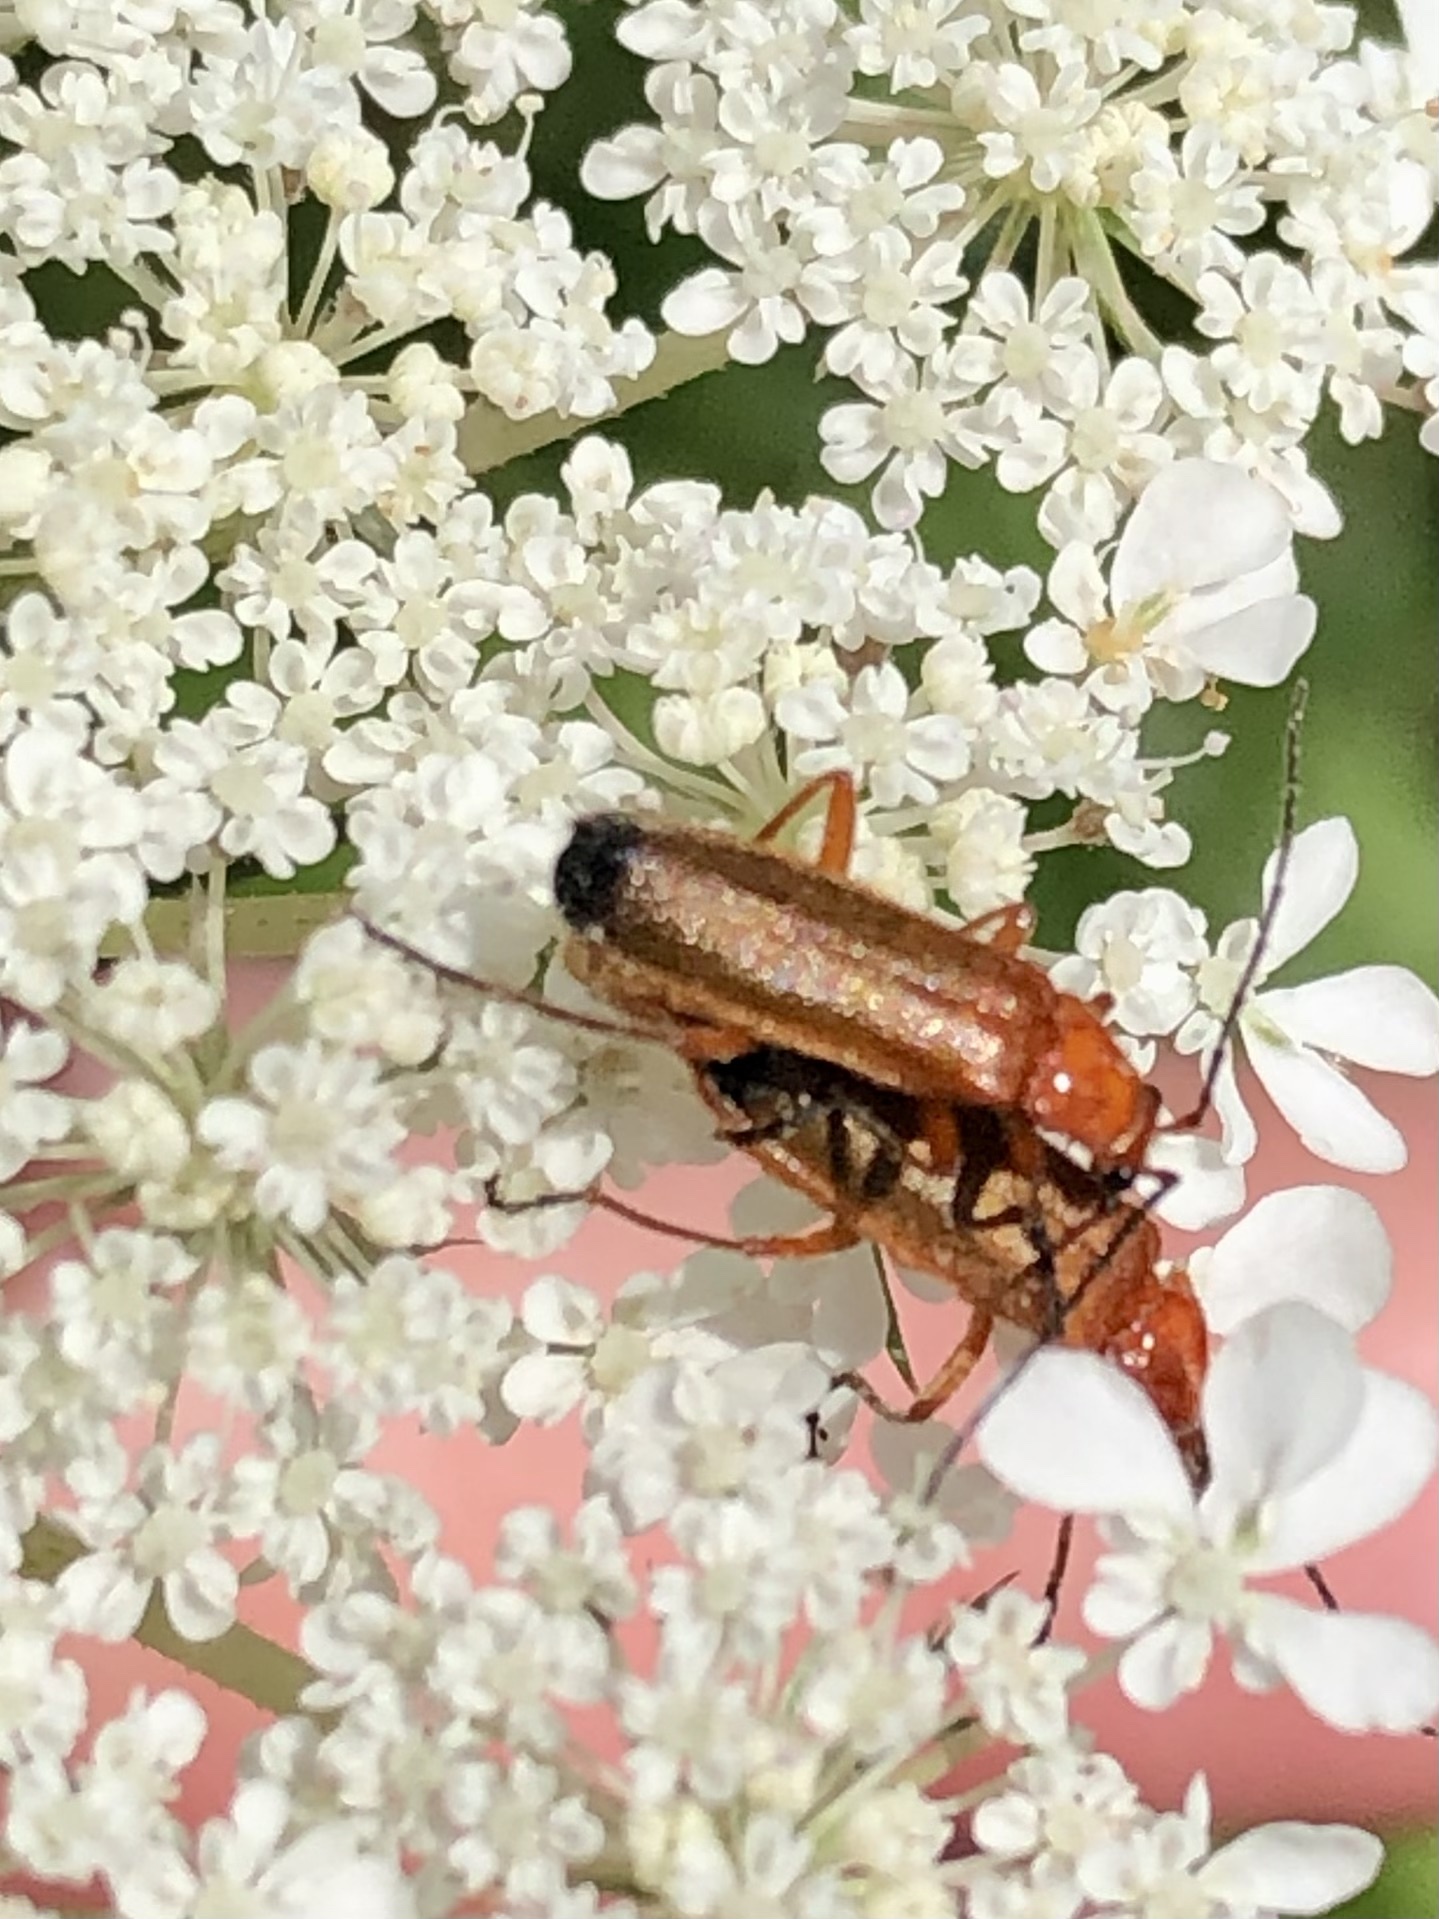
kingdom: Animalia
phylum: Arthropoda
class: Insecta
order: Coleoptera
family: Cantharidae
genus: Rhagonycha
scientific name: Rhagonycha fulva
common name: Common red soldier beetle
